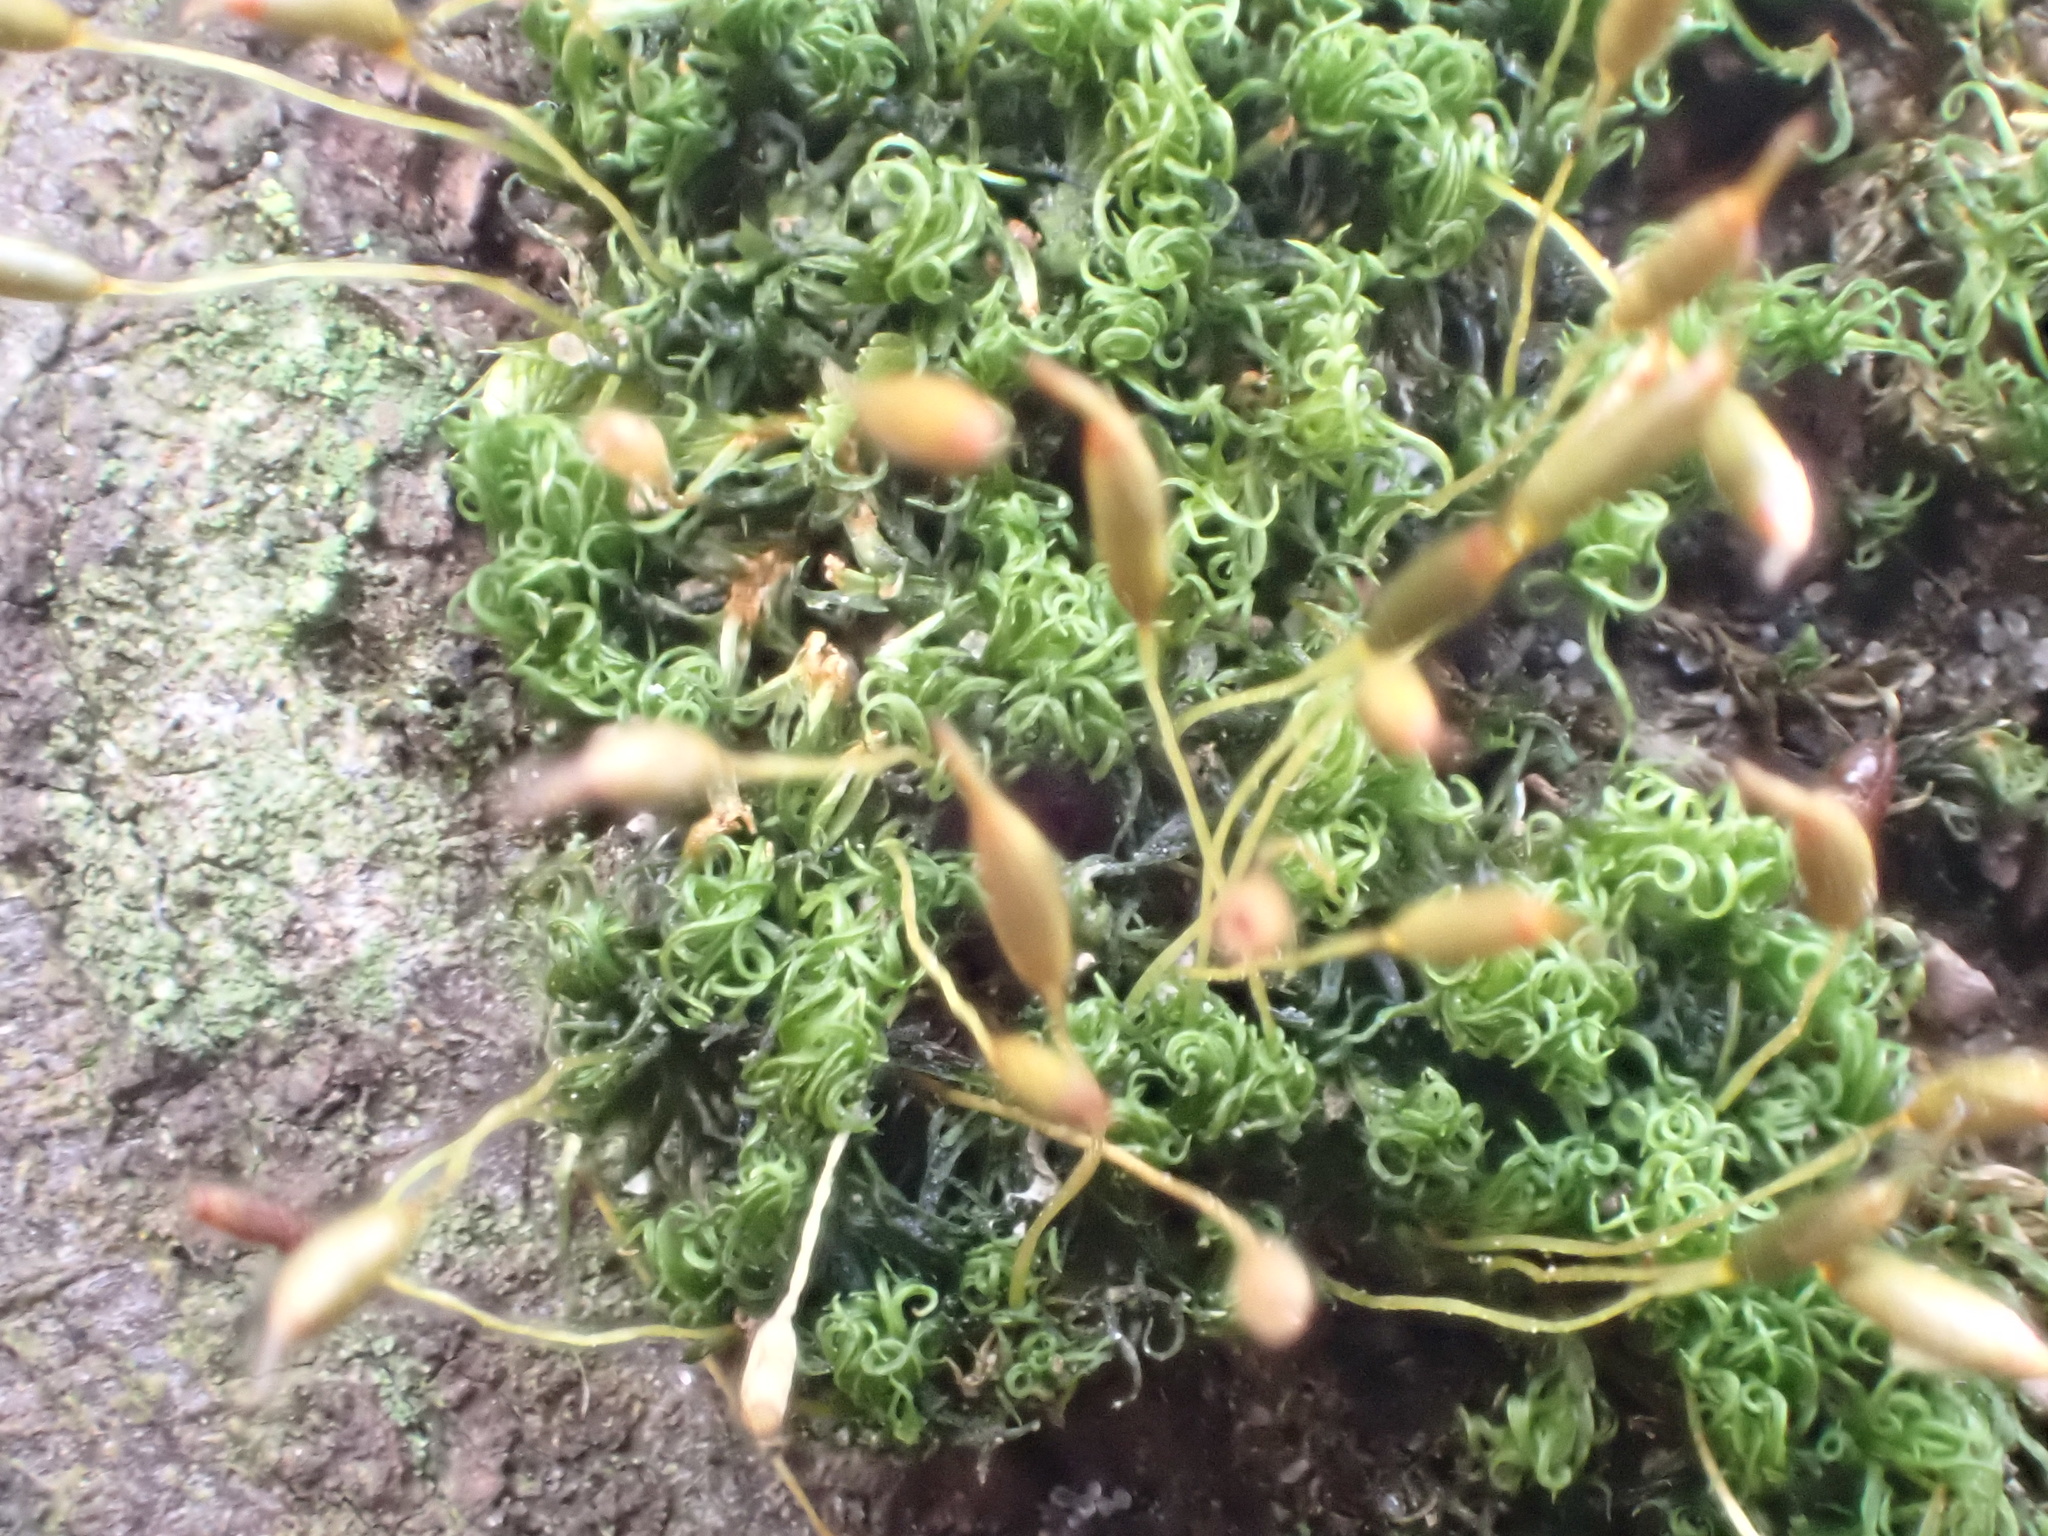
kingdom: Plantae
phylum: Bryophyta
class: Bryopsida
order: Dicranales
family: Rhabdoweisiaceae
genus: Dicranoweisia
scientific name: Dicranoweisia cirrata
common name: Common pincushion
